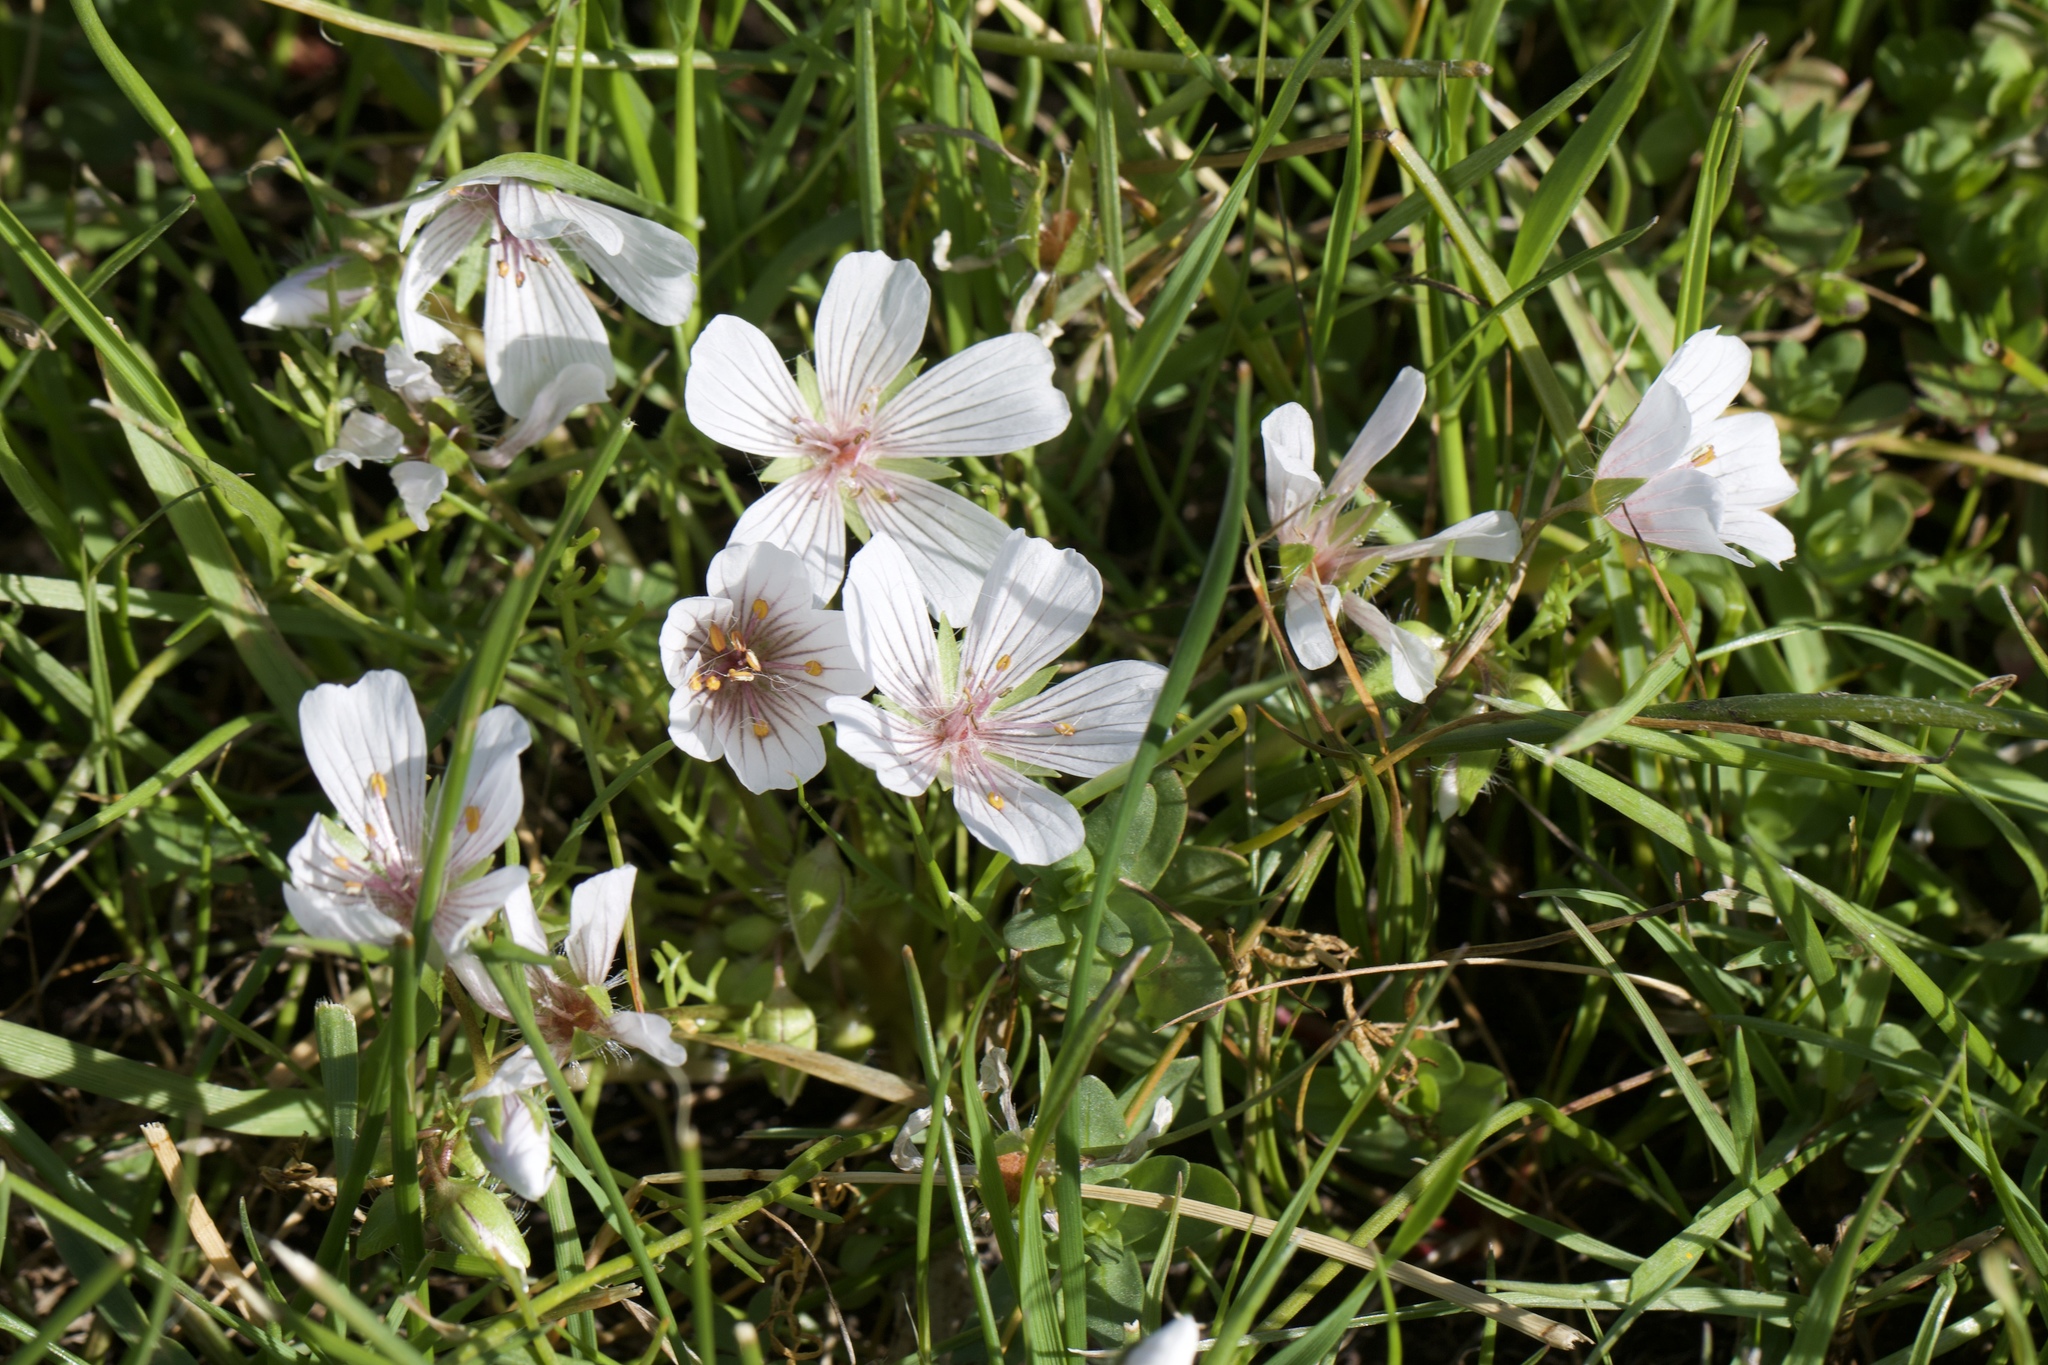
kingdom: Plantae
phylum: Tracheophyta
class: Magnoliopsida
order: Brassicales
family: Limnanthaceae
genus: Limnanthes
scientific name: Limnanthes douglasii
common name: Meadow-foam
